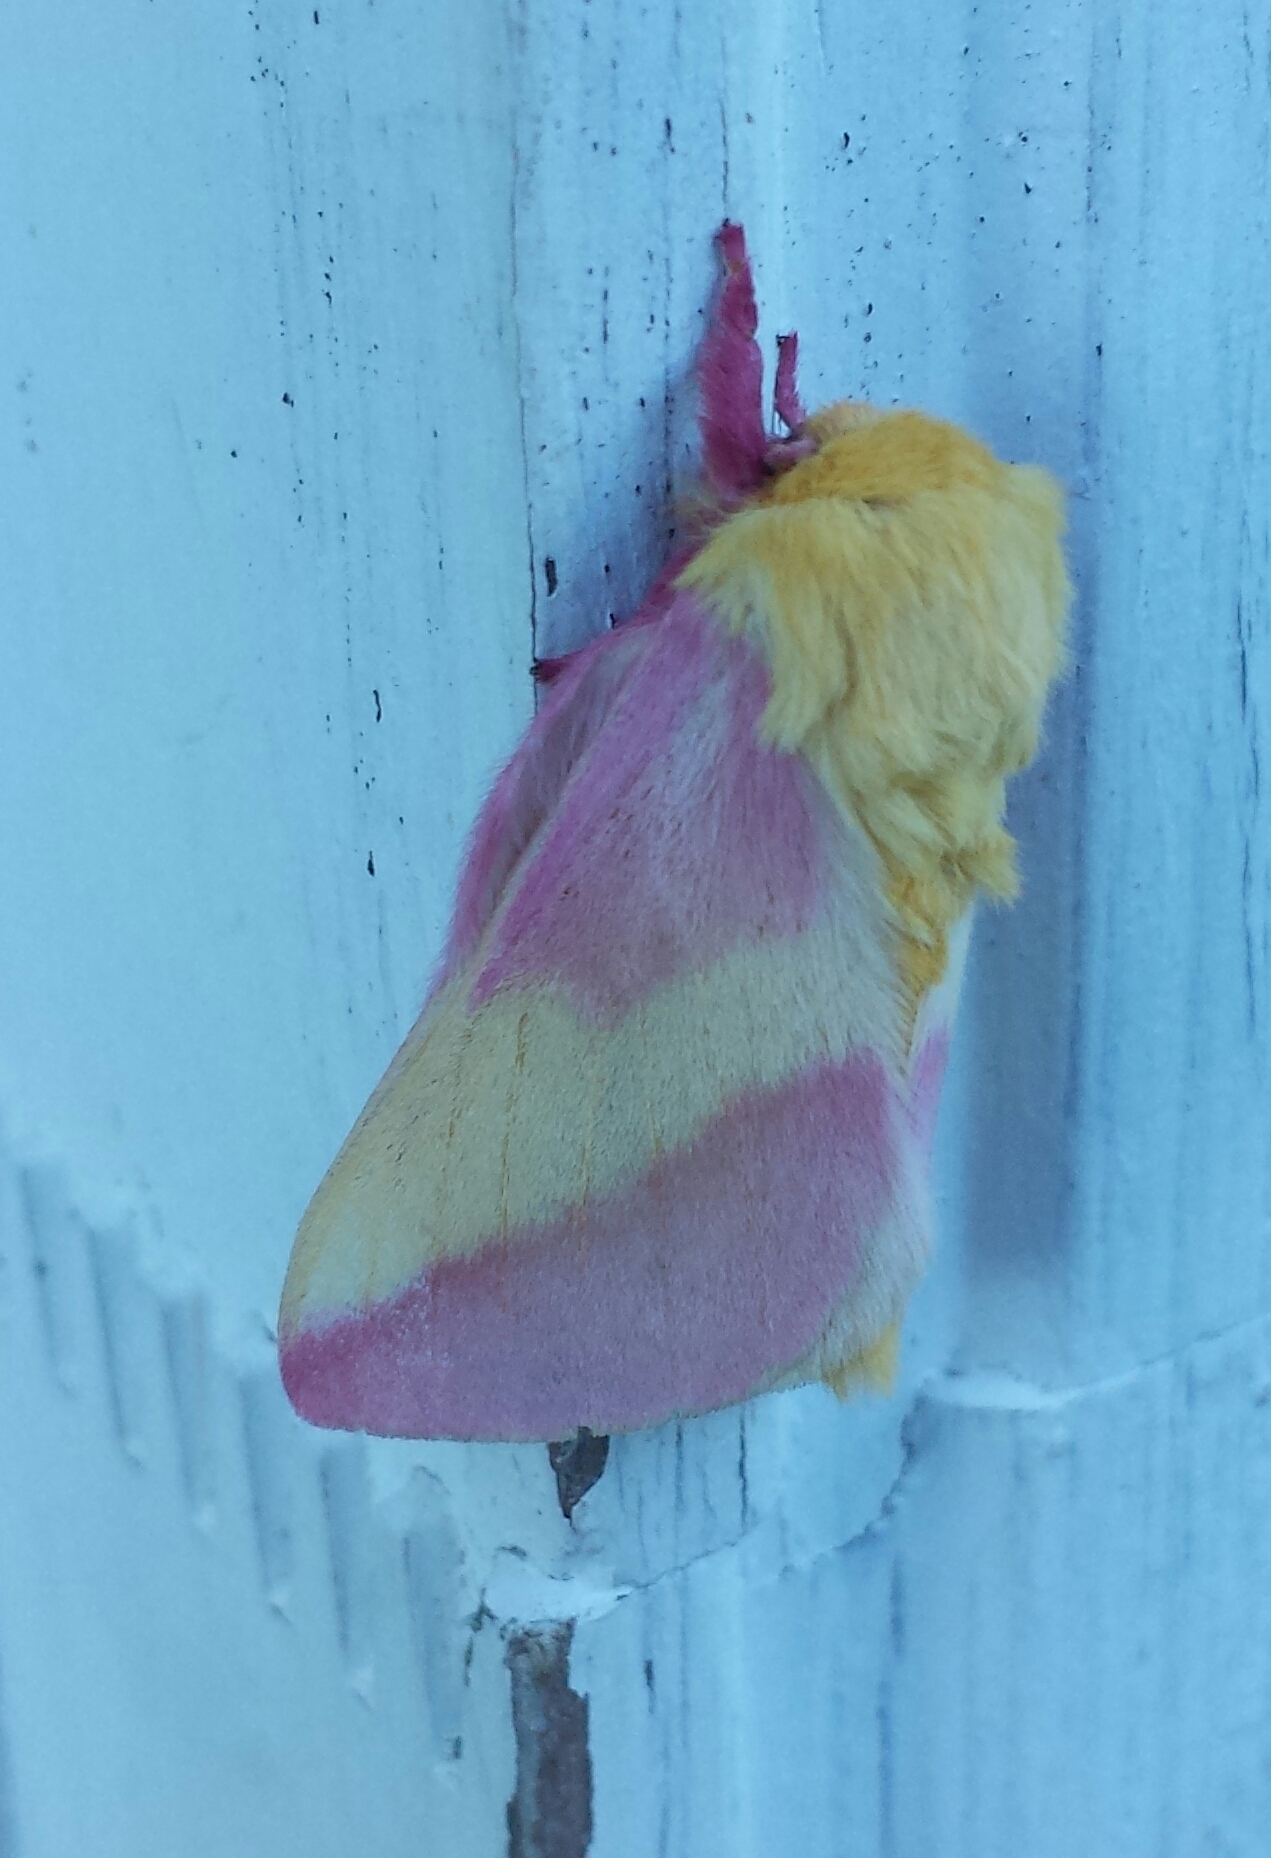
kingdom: Animalia
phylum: Arthropoda
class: Insecta
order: Lepidoptera
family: Saturniidae
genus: Dryocampa
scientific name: Dryocampa rubicunda
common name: Rosy maple moth
